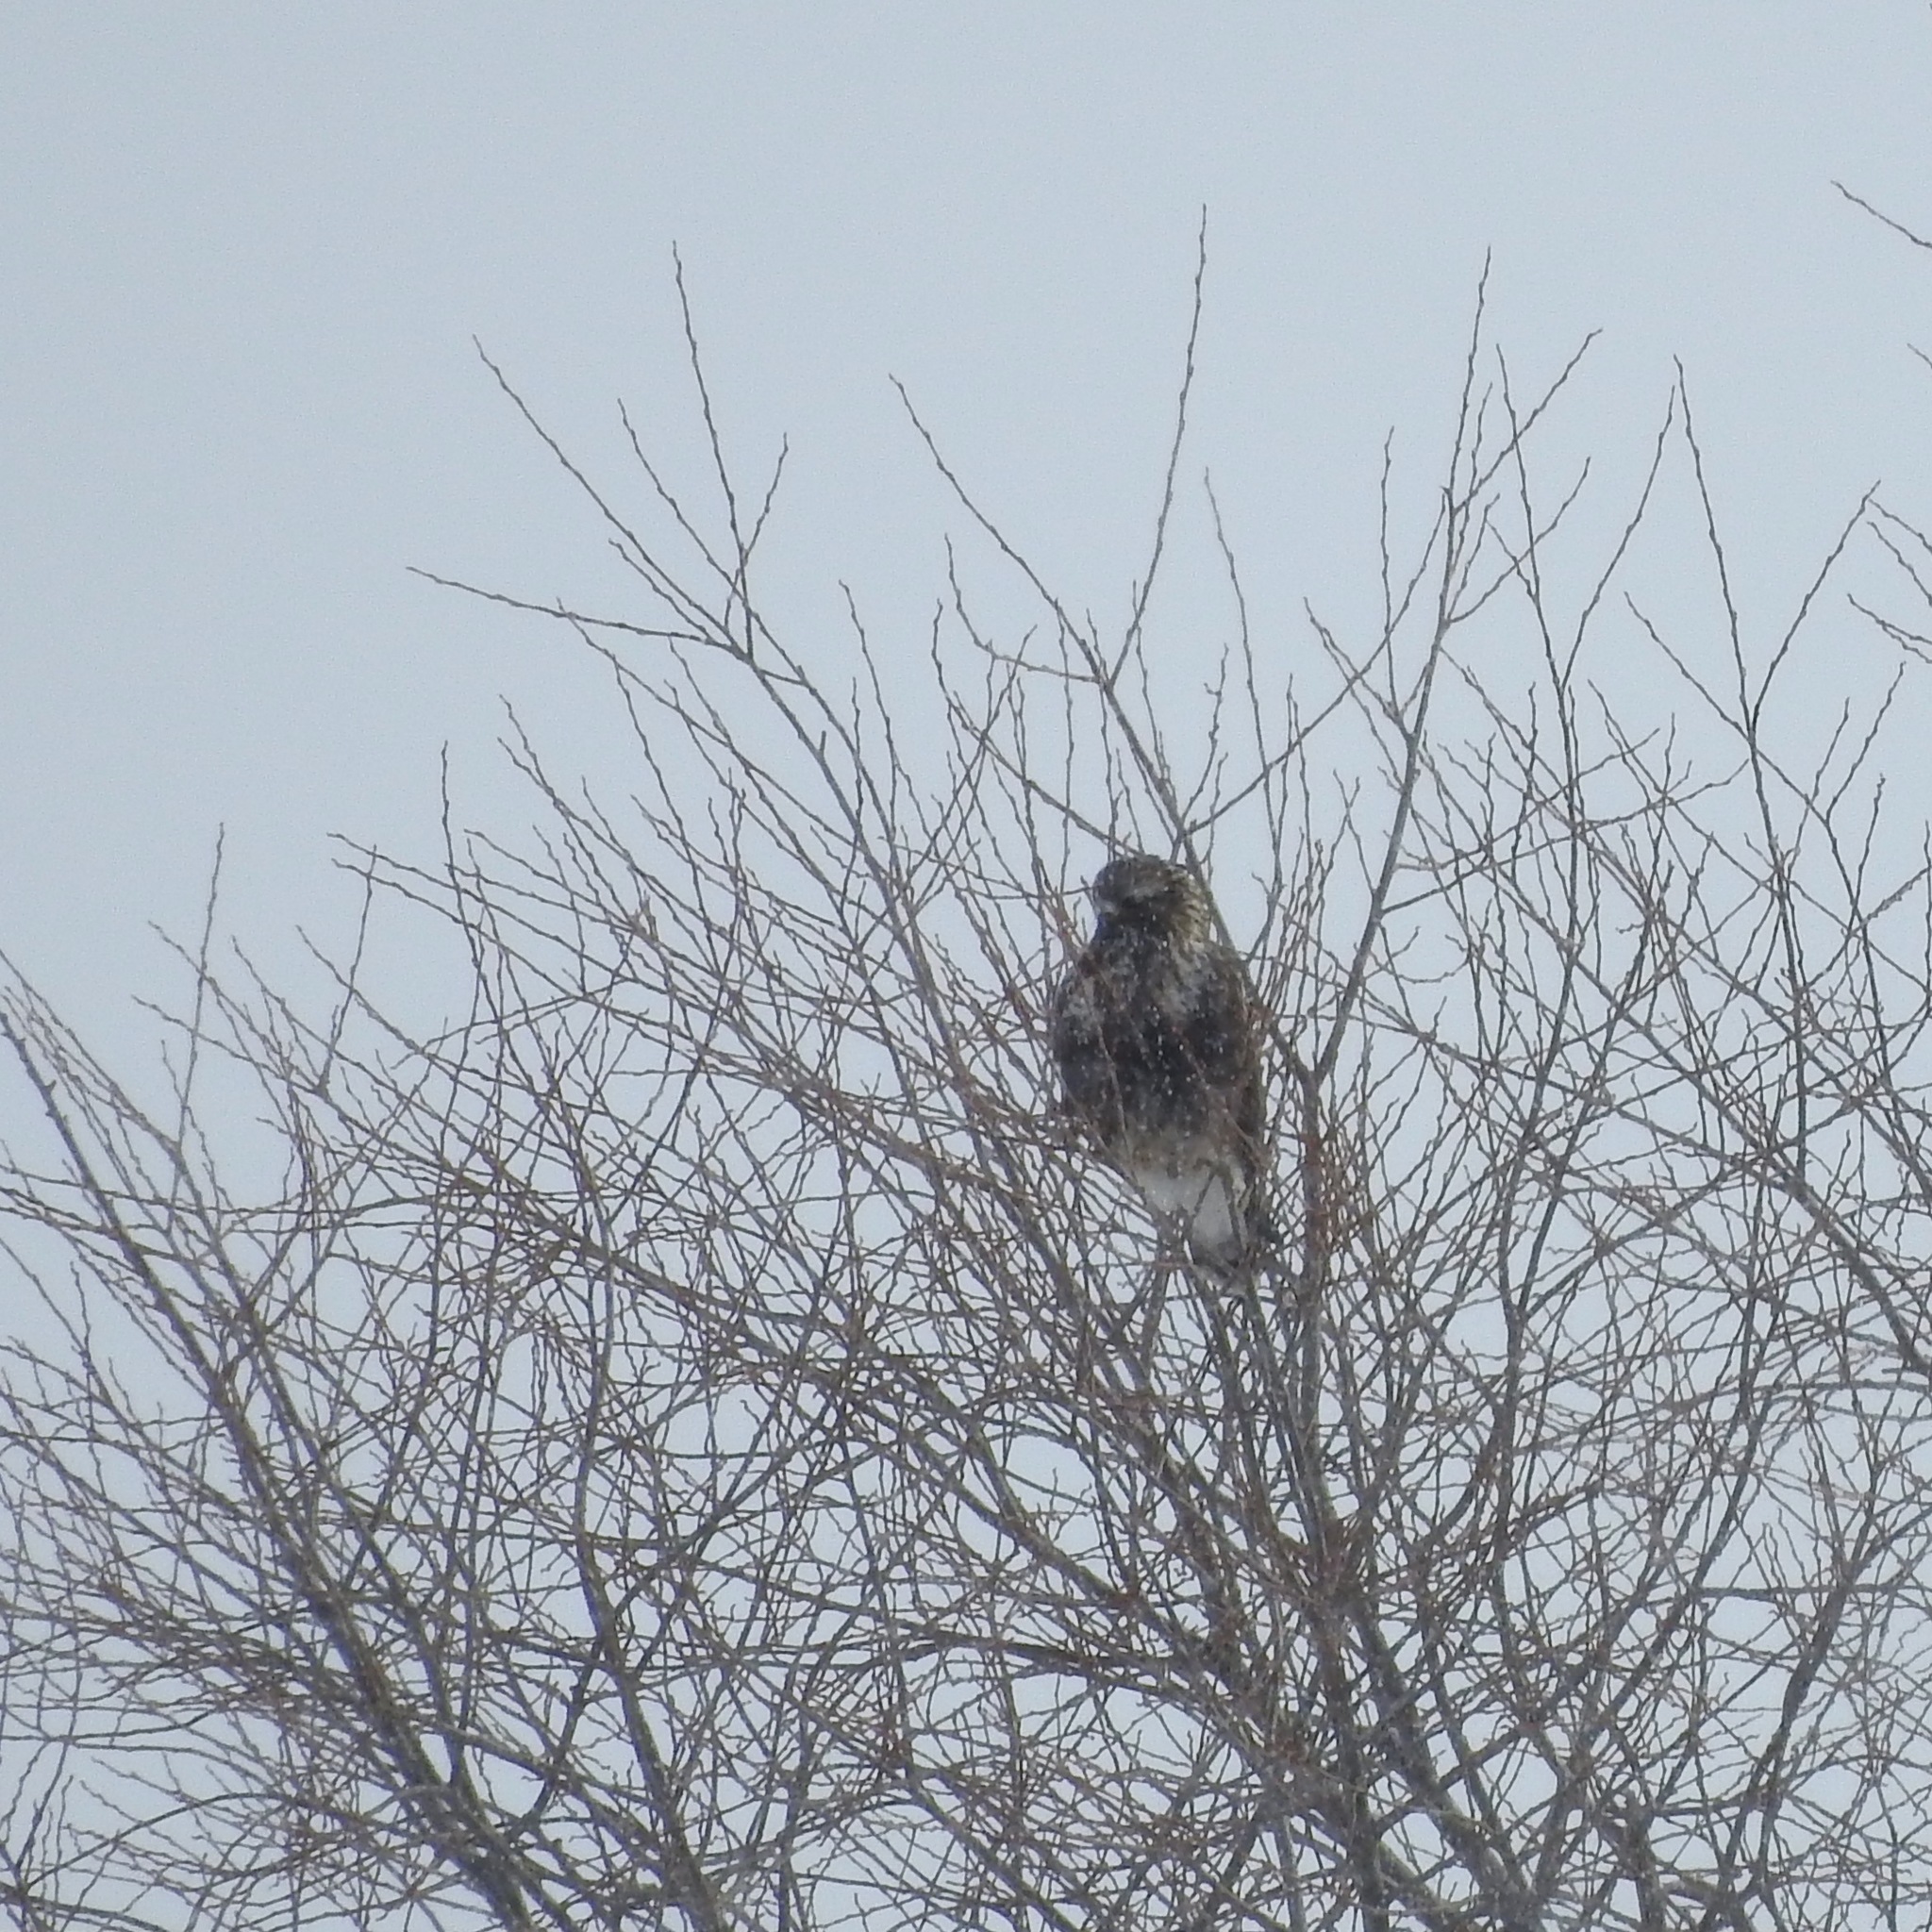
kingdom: Animalia
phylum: Chordata
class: Aves
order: Accipitriformes
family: Accipitridae
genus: Buteo
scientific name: Buteo lagopus
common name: Rough-legged buzzard
